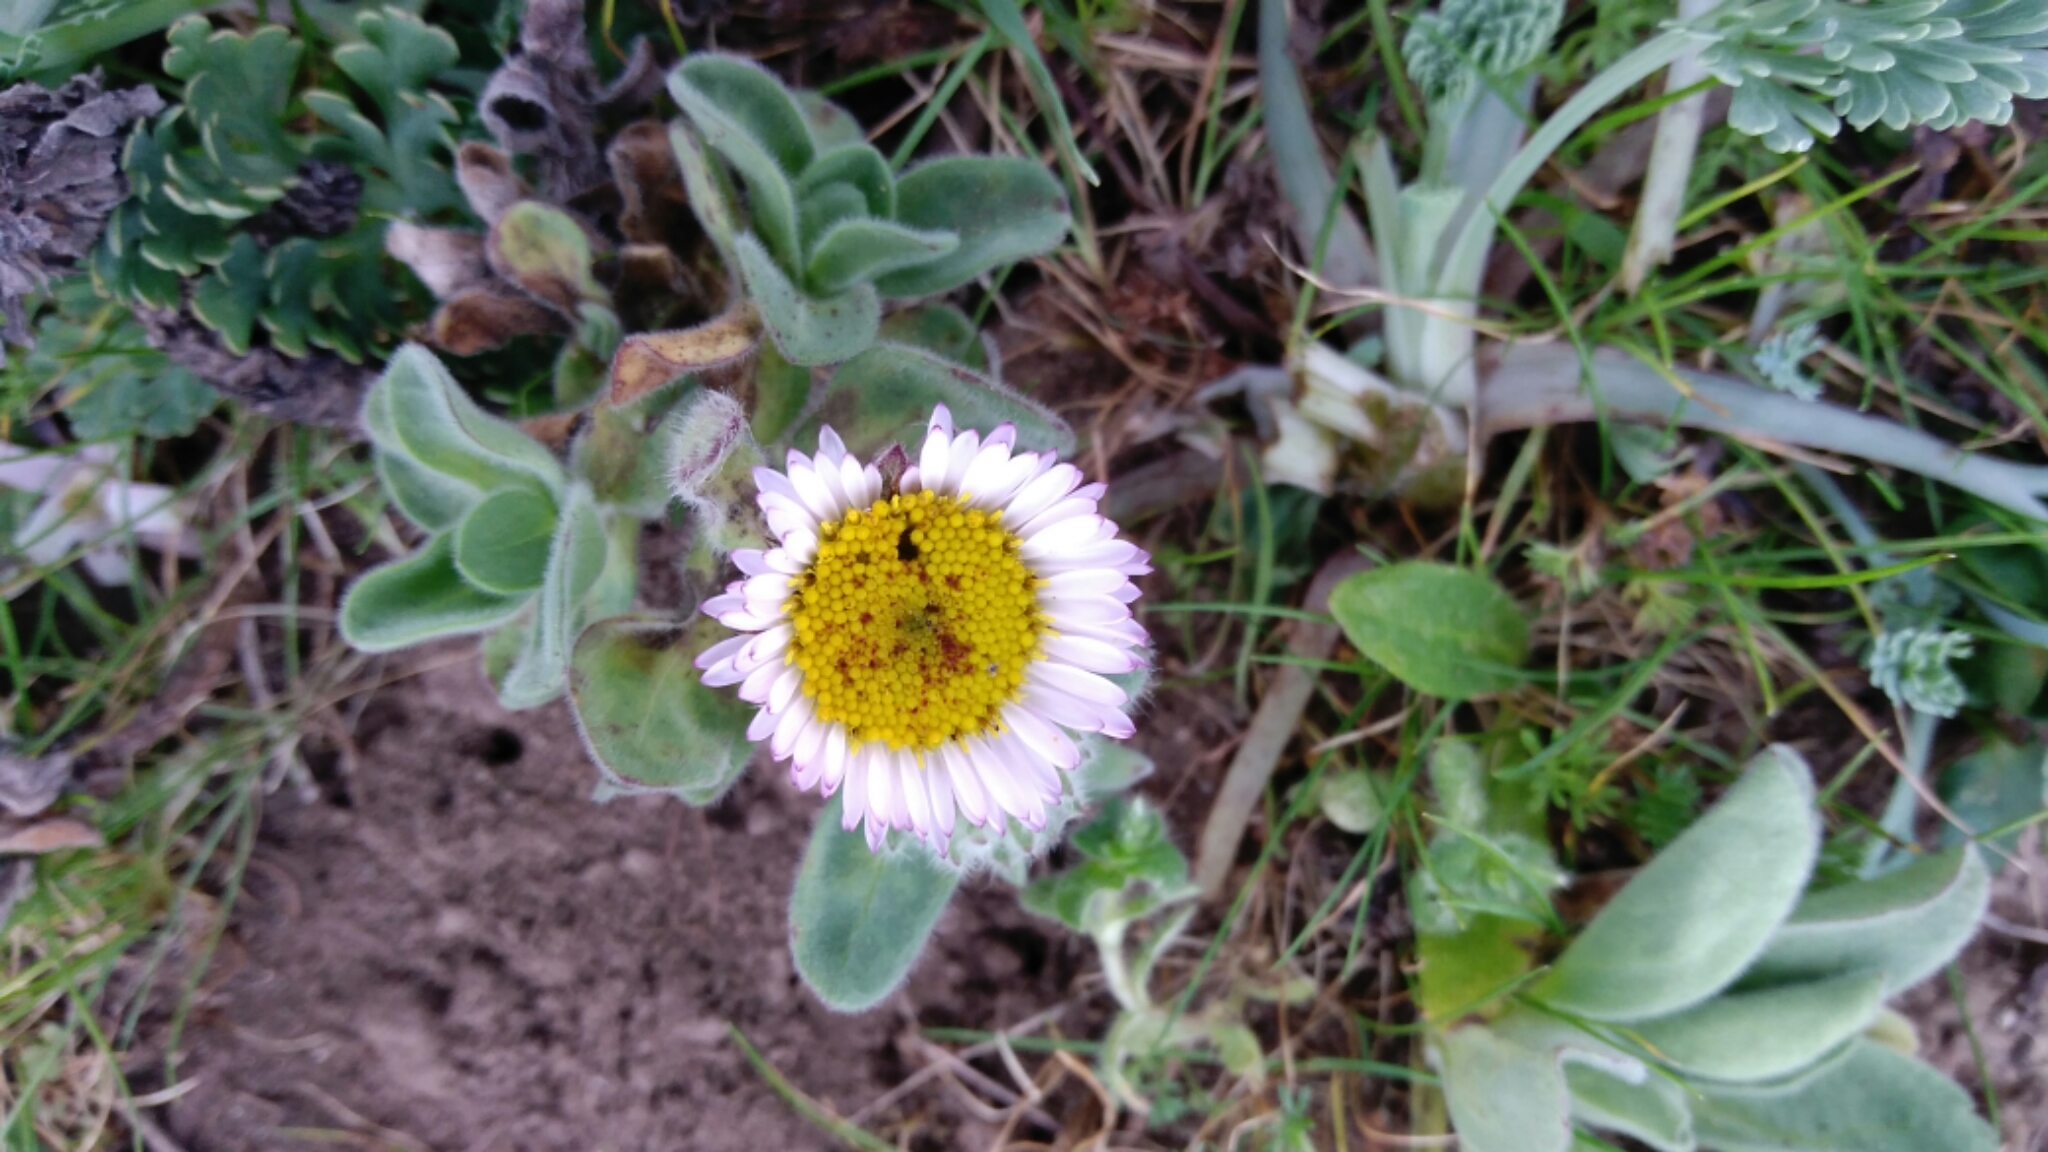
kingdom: Plantae
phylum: Tracheophyta
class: Magnoliopsida
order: Asterales
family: Asteraceae
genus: Erigeron
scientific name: Erigeron glaucus
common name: Seaside daisy
